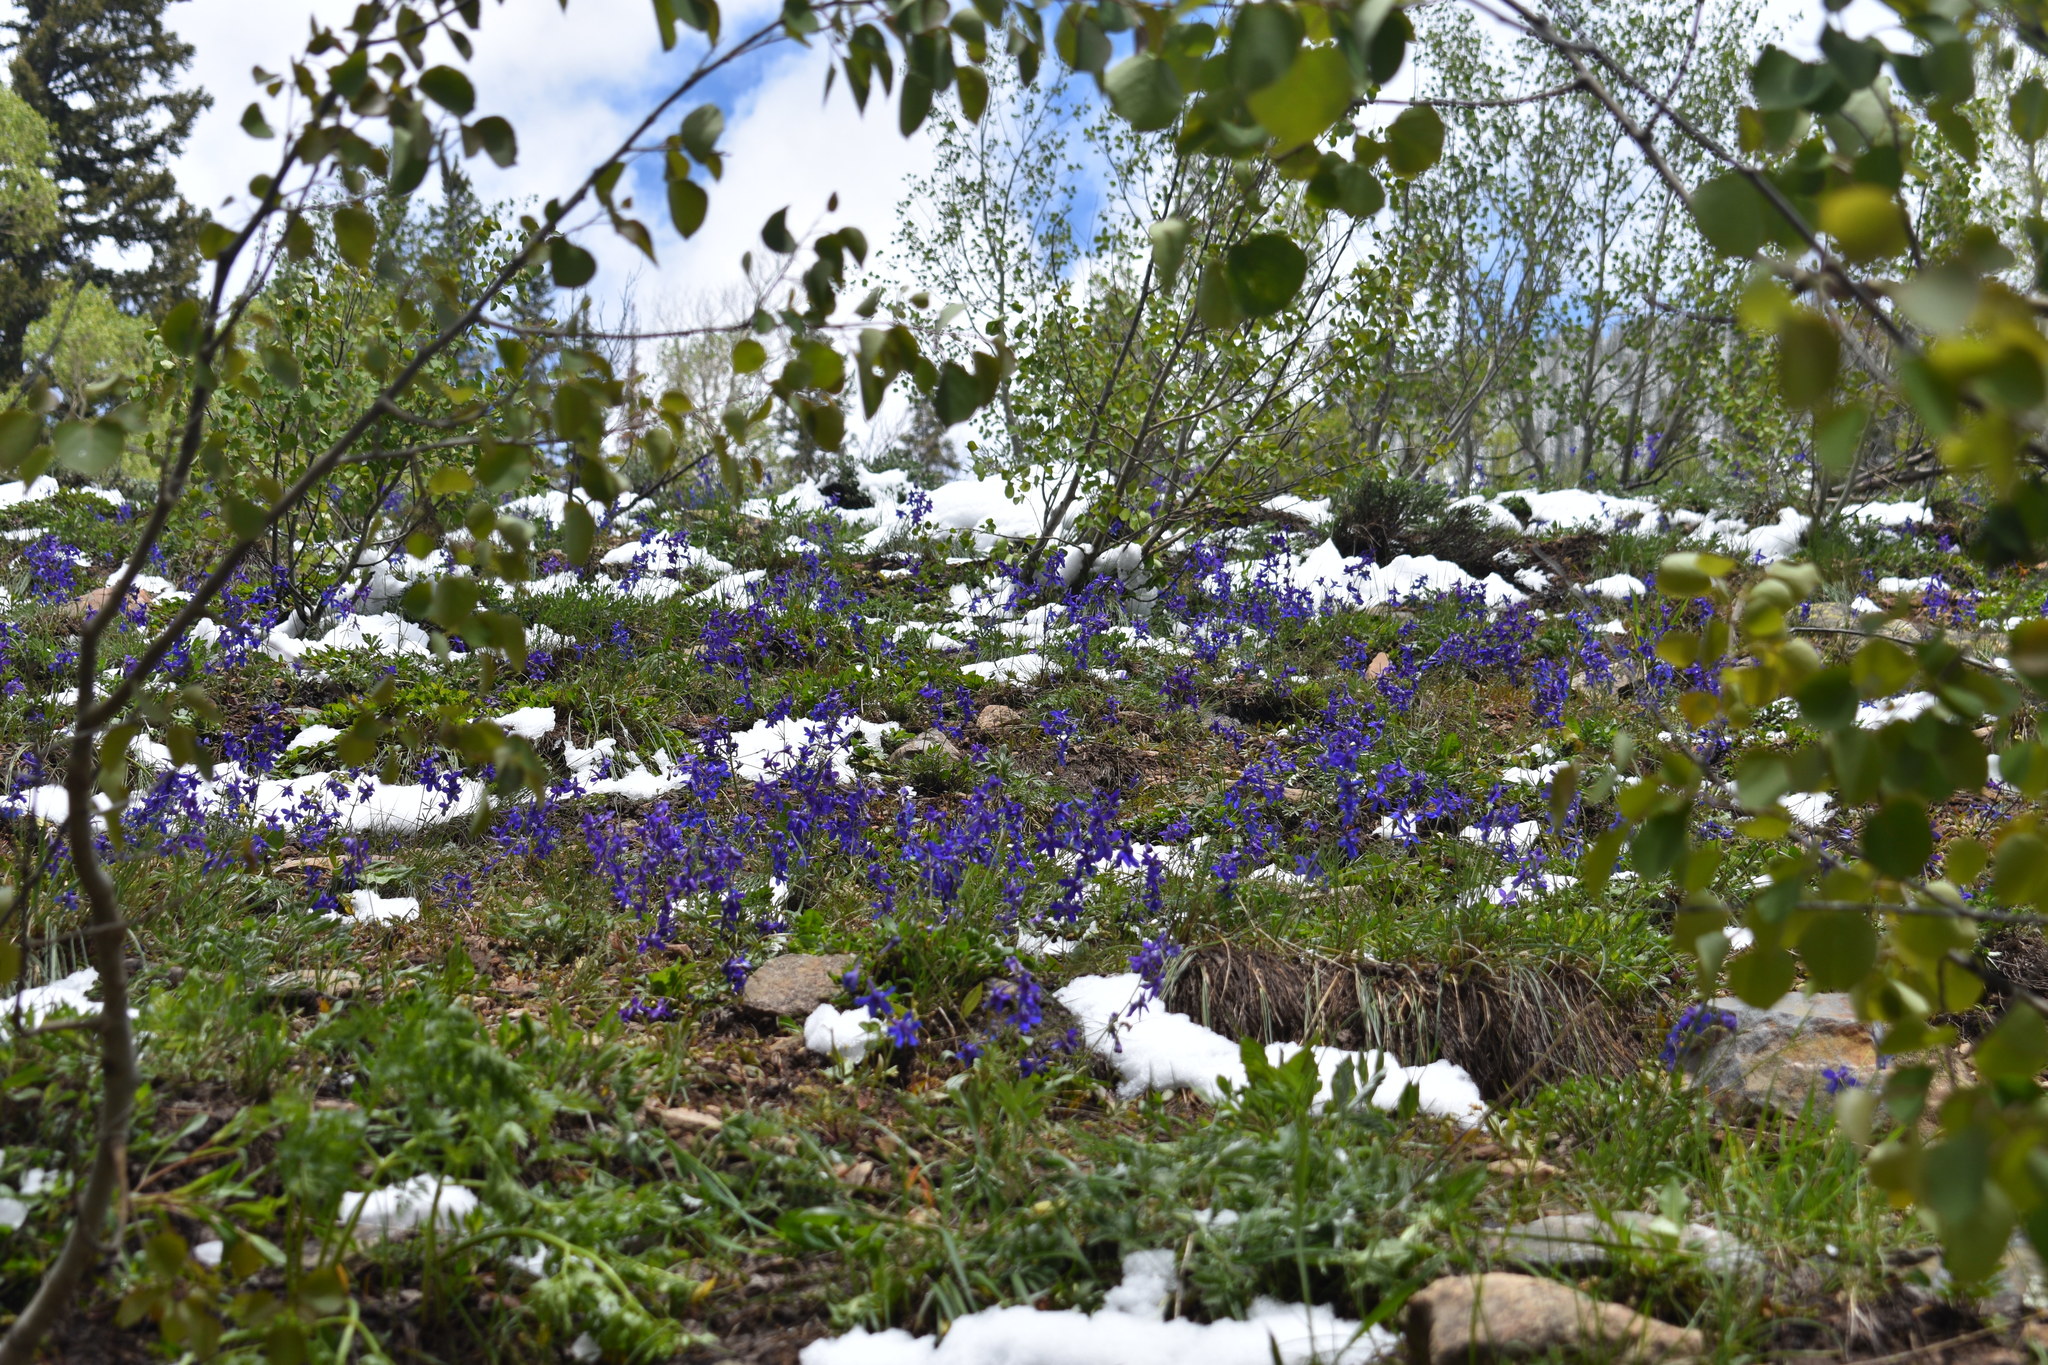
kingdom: Plantae
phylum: Tracheophyta
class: Magnoliopsida
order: Ranunculales
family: Ranunculaceae
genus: Delphinium
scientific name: Delphinium nuttallianum
